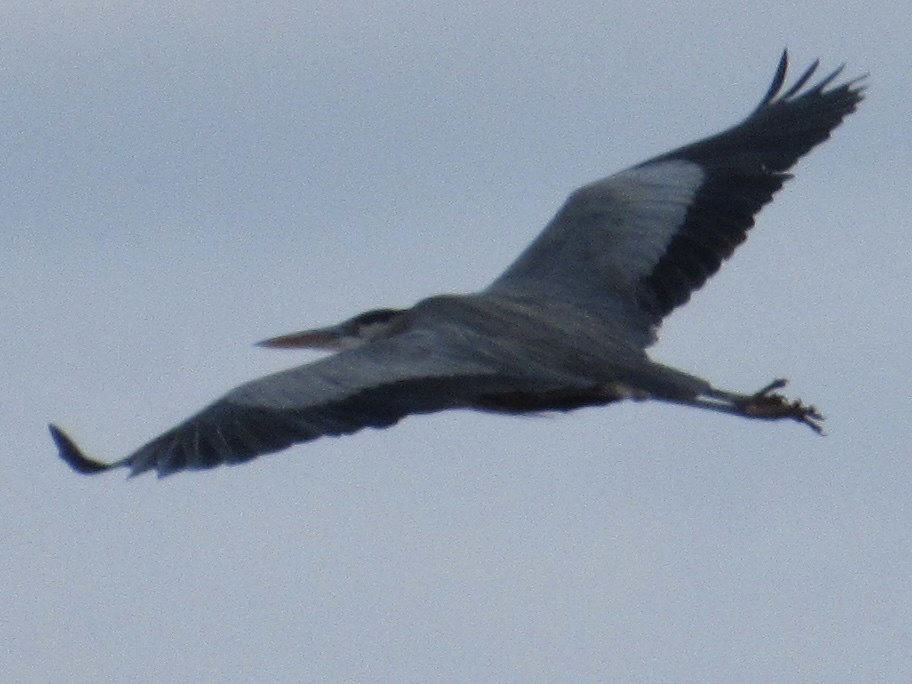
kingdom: Animalia
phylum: Chordata
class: Aves
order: Pelecaniformes
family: Ardeidae
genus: Ardea
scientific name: Ardea herodias
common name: Great blue heron
